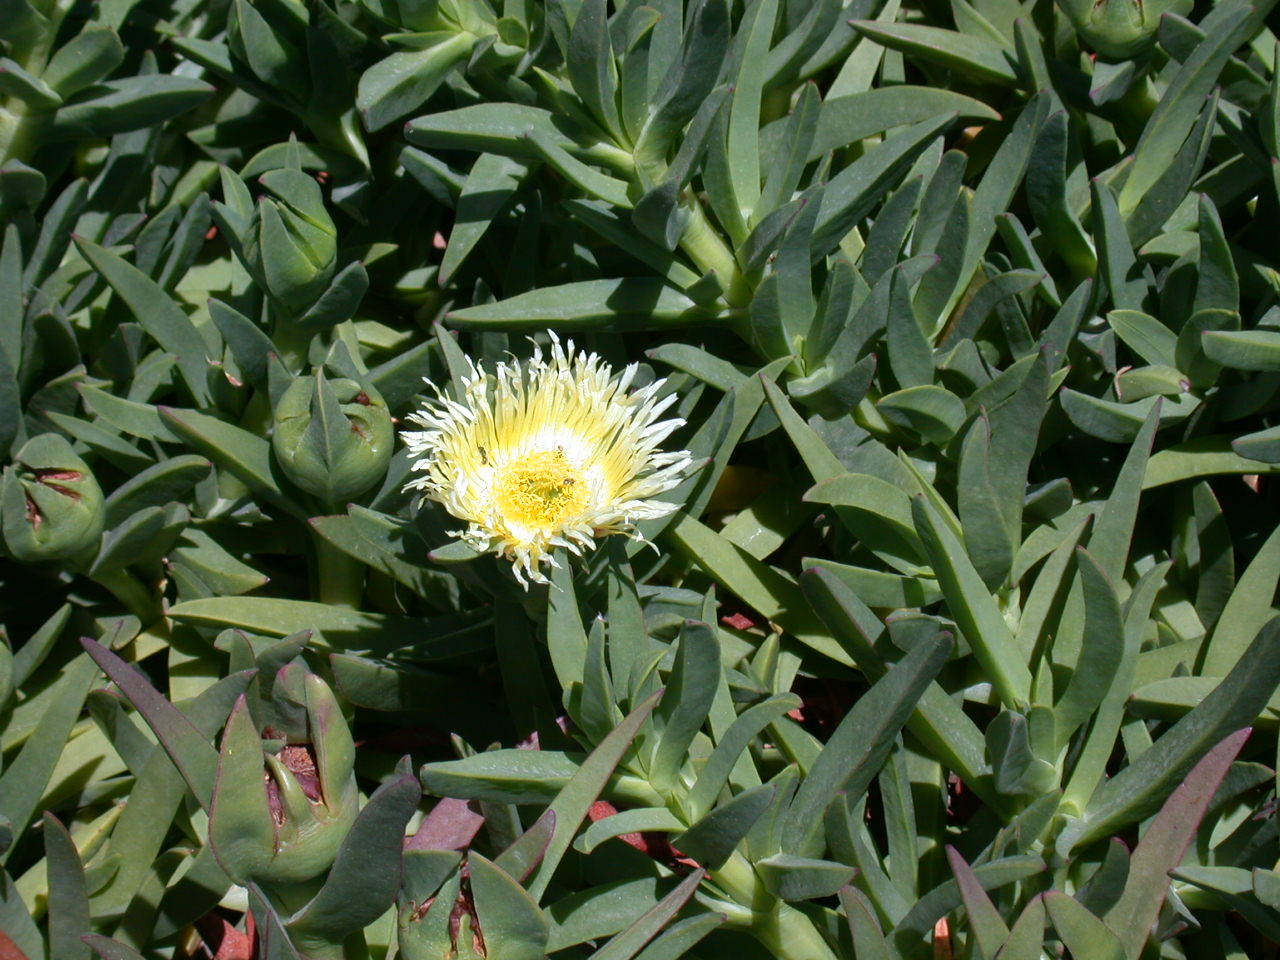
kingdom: Plantae
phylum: Tracheophyta
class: Magnoliopsida
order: Caryophyllales
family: Aizoaceae
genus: Carpobrotus
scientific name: Carpobrotus edulis
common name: Hottentot-fig
